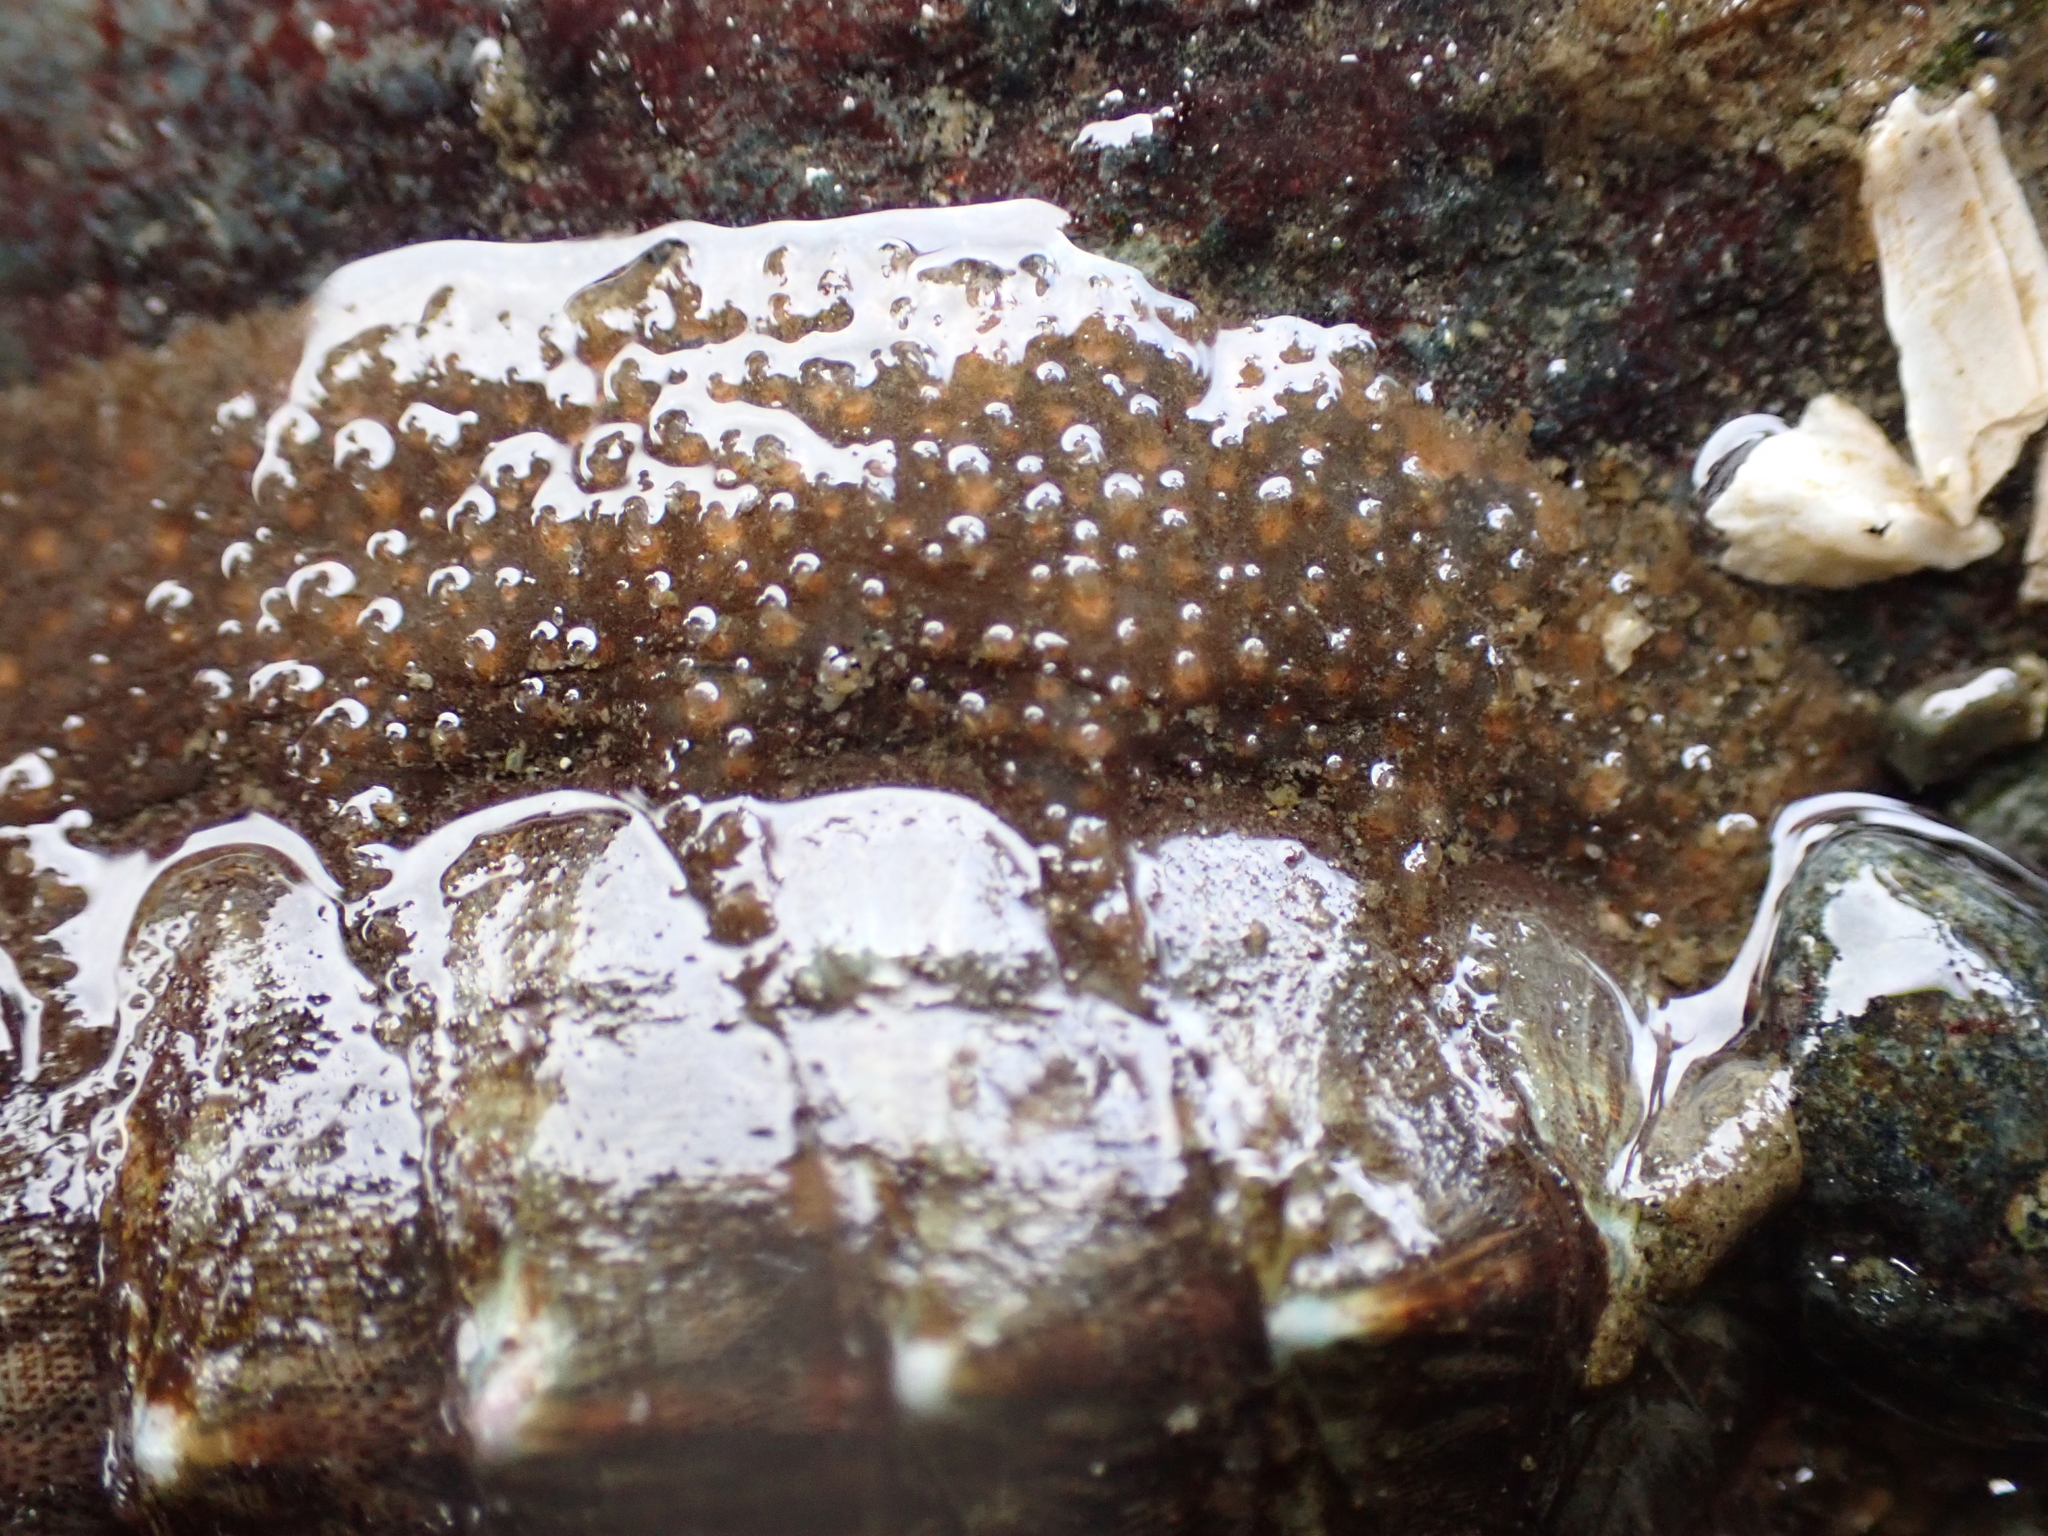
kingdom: Animalia
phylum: Mollusca
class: Polyplacophora
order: Chitonida
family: Mopaliidae
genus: Mopalia
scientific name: Mopalia lignosa
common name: Woody chiton
